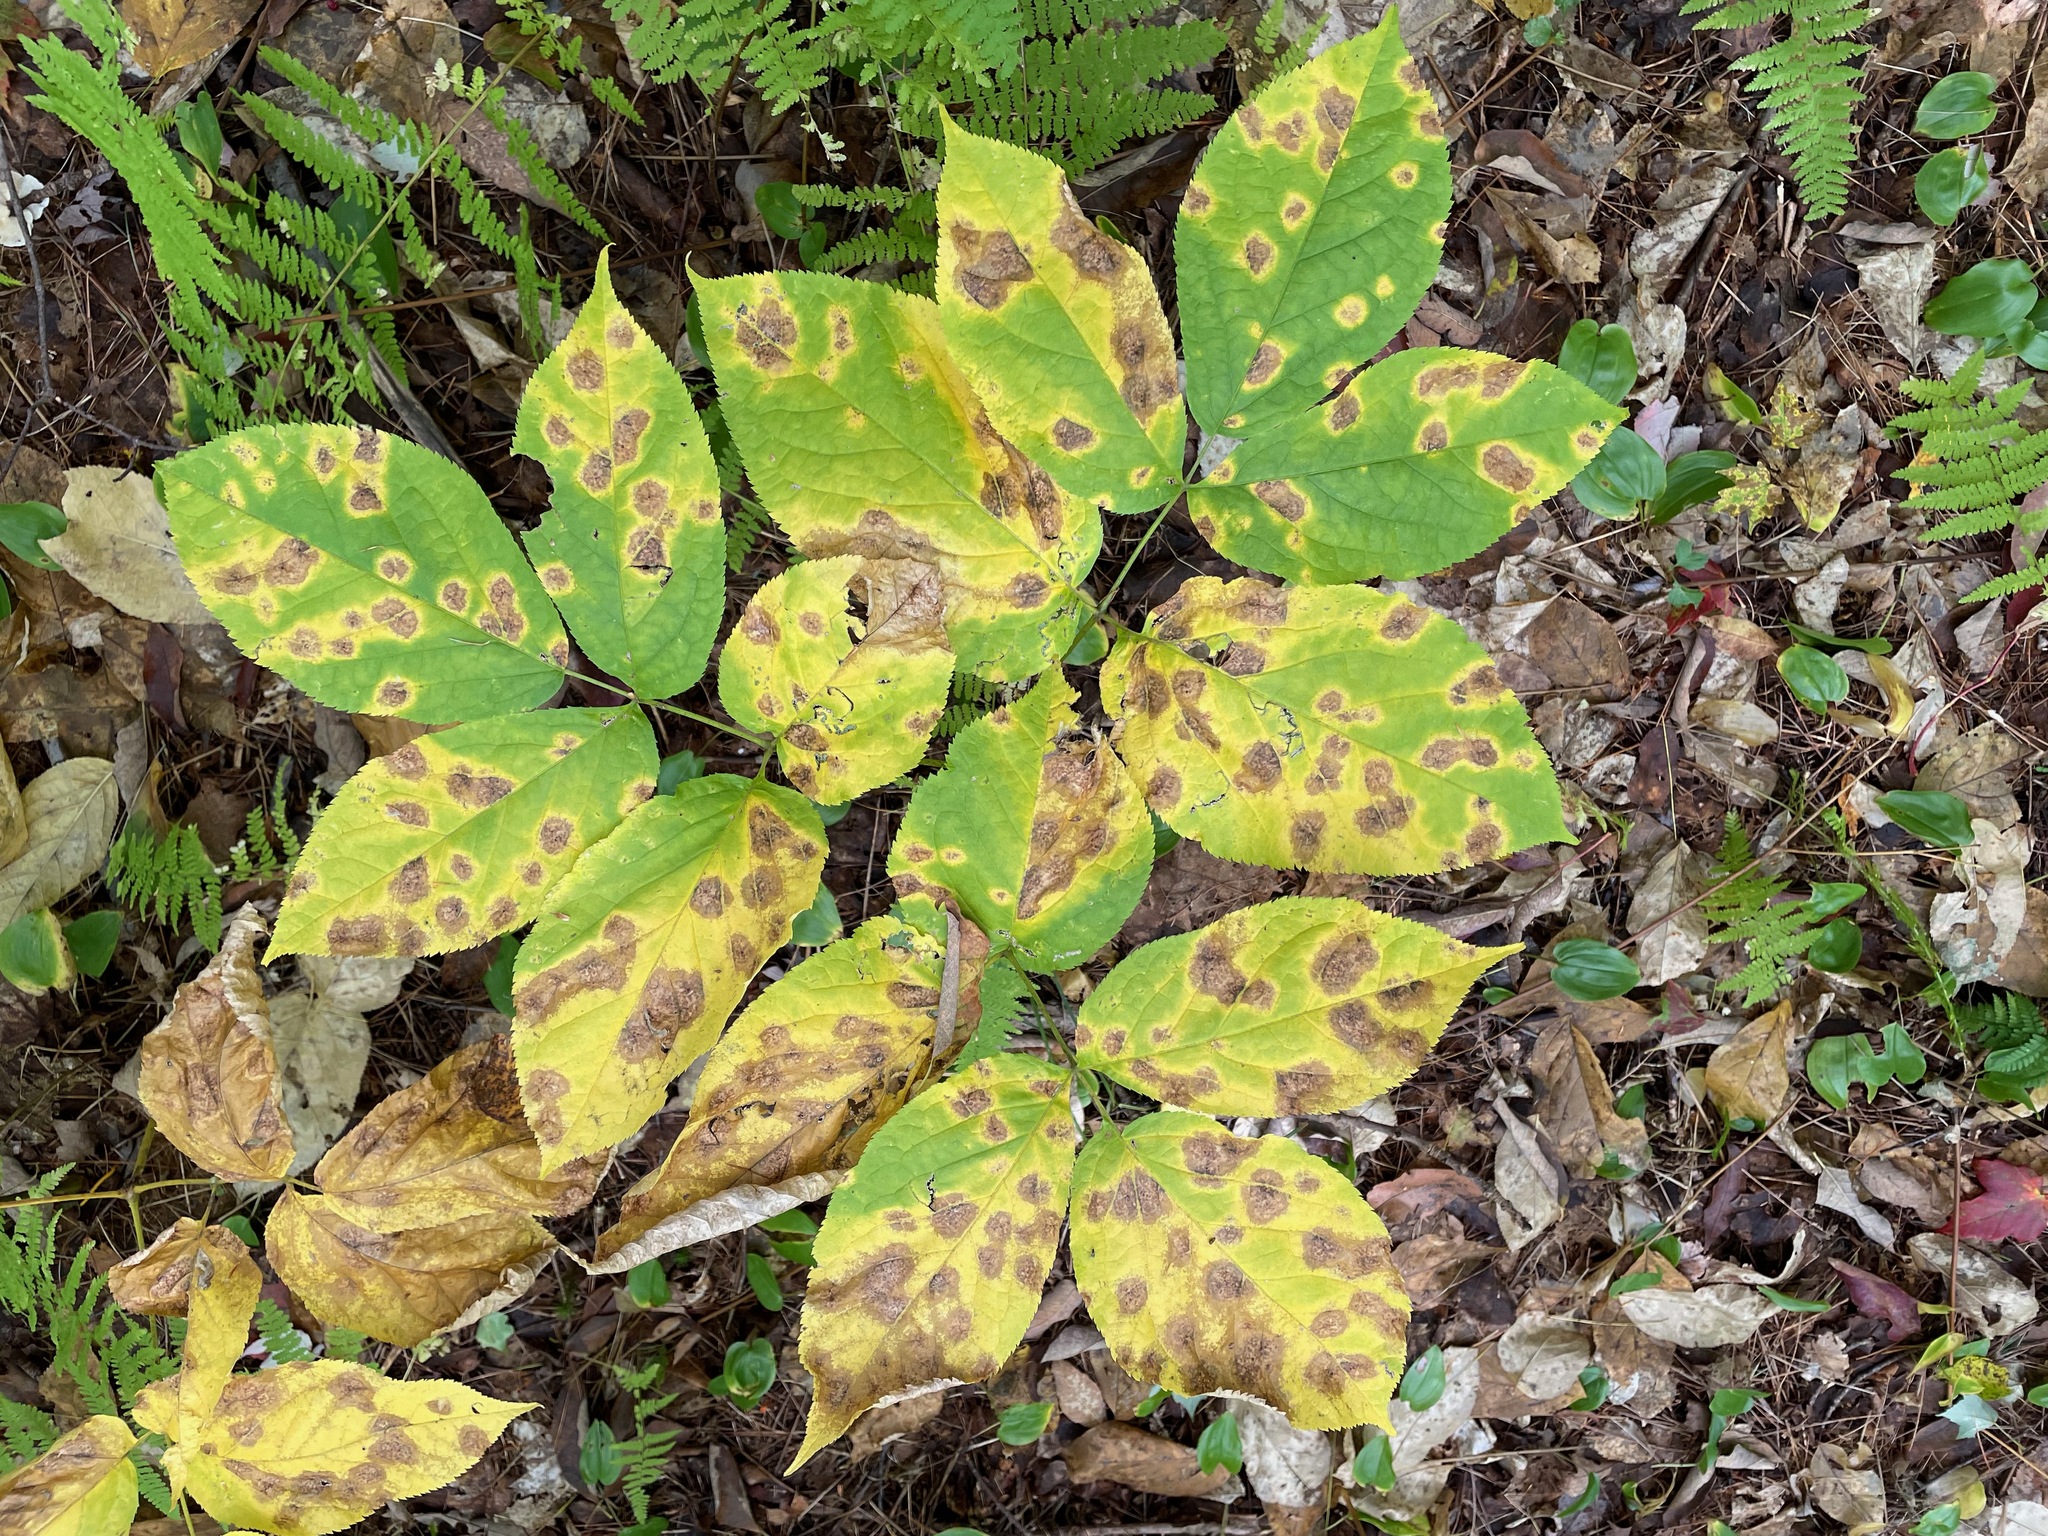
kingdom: Plantae
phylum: Tracheophyta
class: Magnoliopsida
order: Apiales
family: Araliaceae
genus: Aralia
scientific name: Aralia nudicaulis
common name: Wild sarsaparilla
